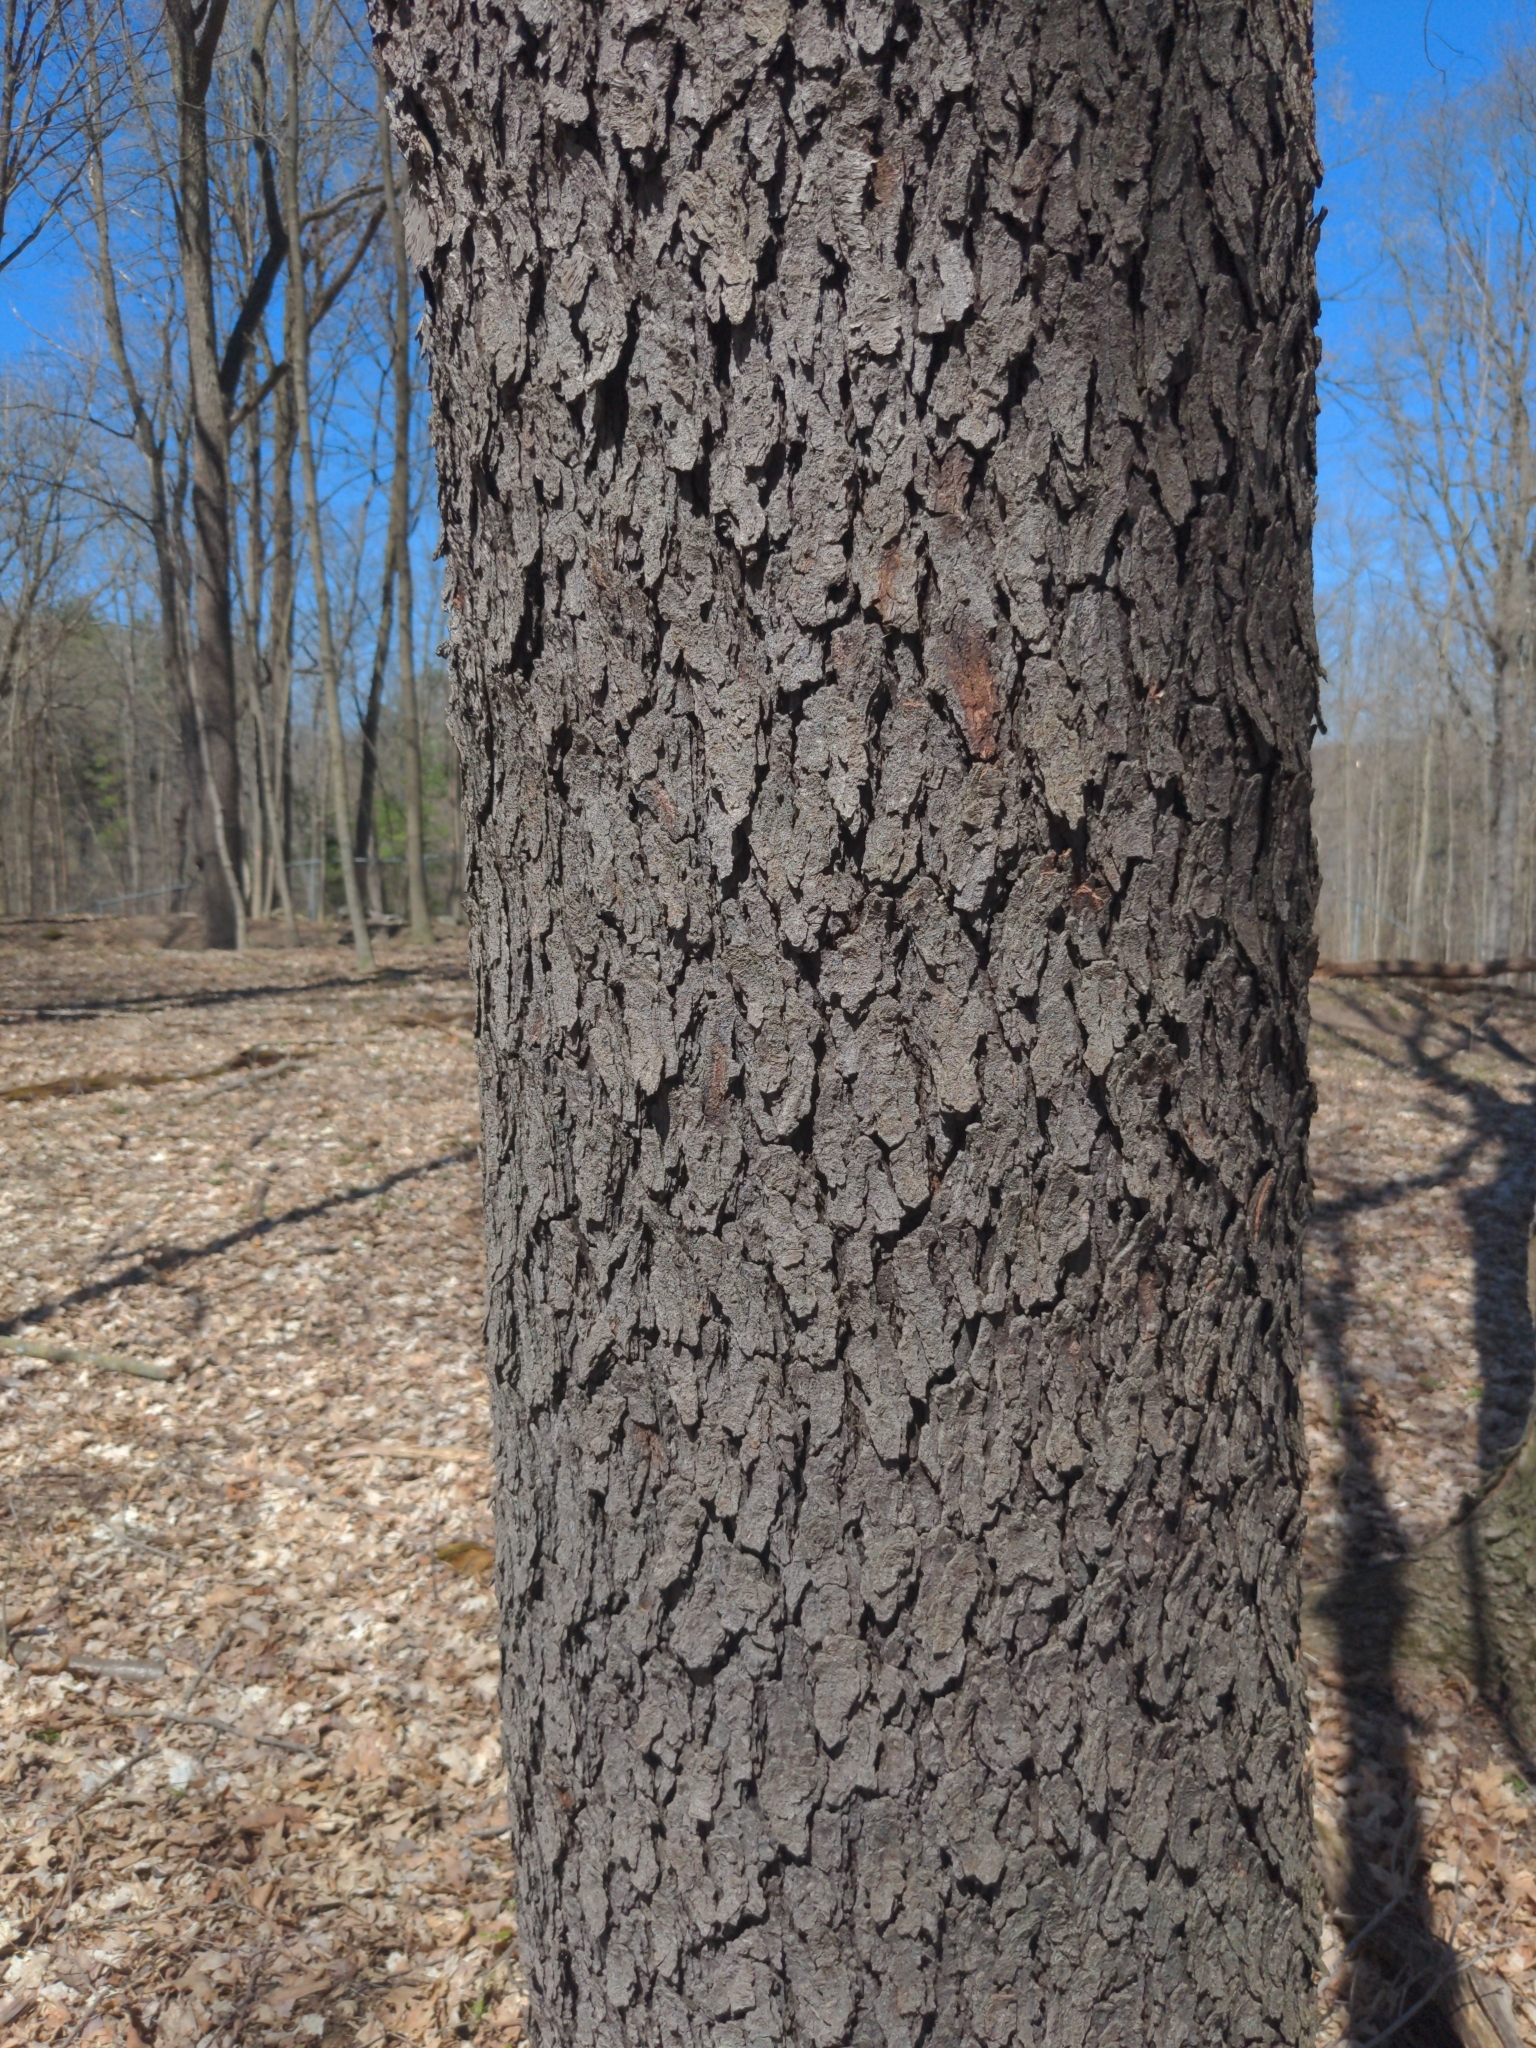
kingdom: Plantae
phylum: Tracheophyta
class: Magnoliopsida
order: Rosales
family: Rosaceae
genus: Prunus
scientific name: Prunus serotina
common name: Black cherry
